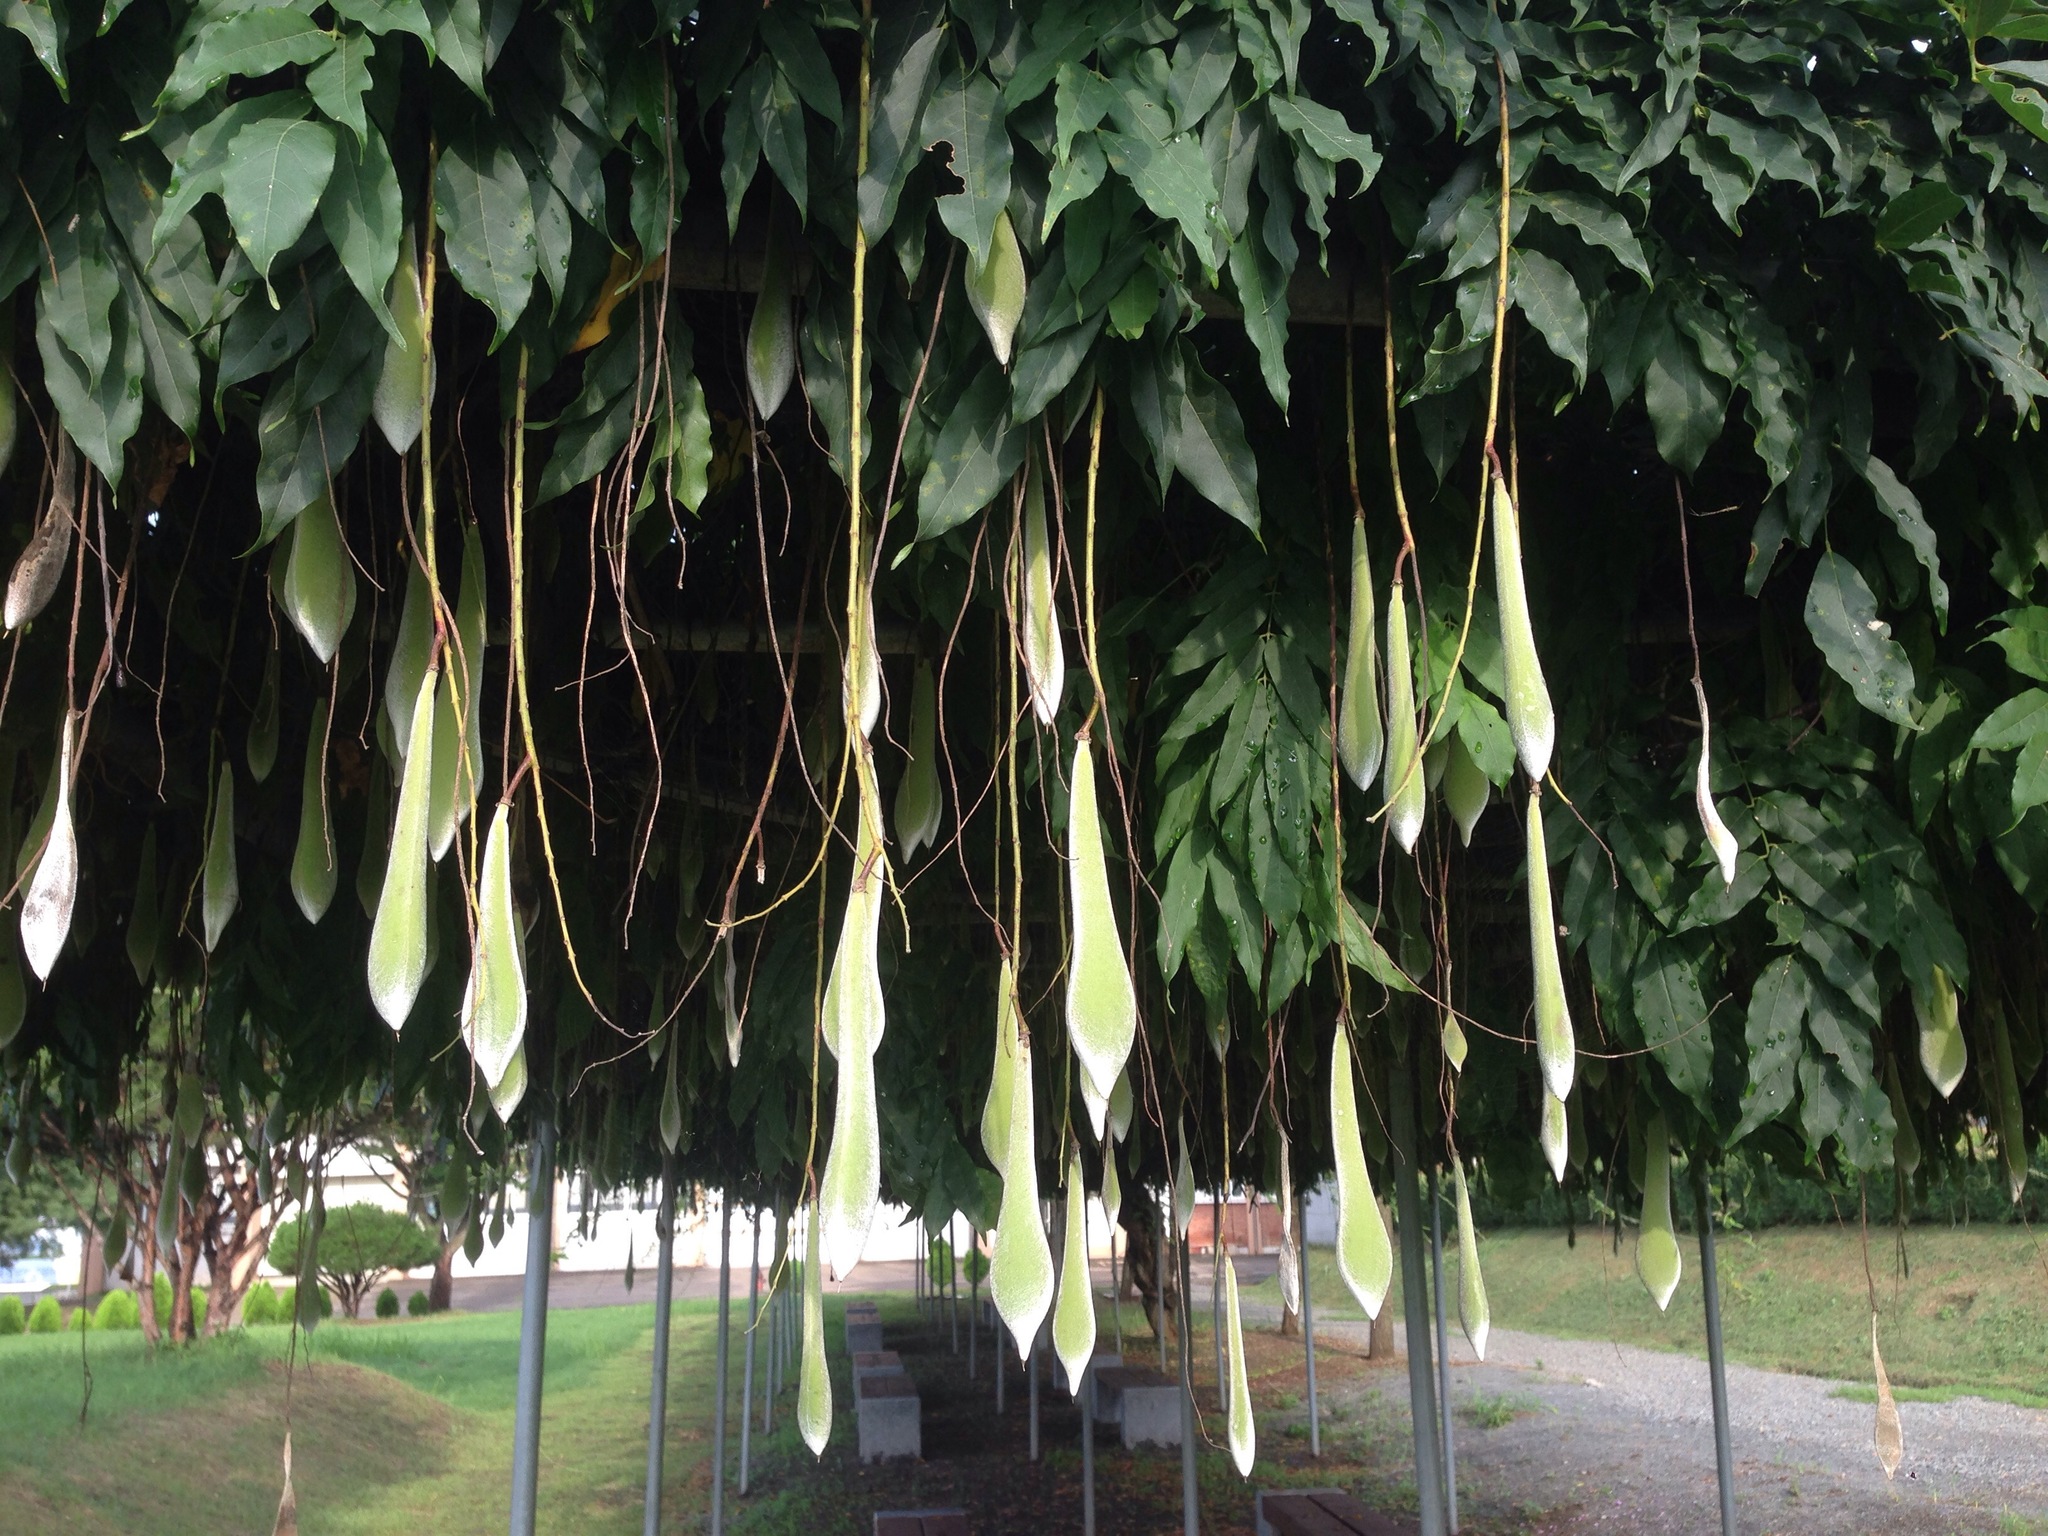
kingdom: Plantae
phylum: Tracheophyta
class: Magnoliopsida
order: Fabales
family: Fabaceae
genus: Wisteria
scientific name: Wisteria floribunda
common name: Japanese wisteria
